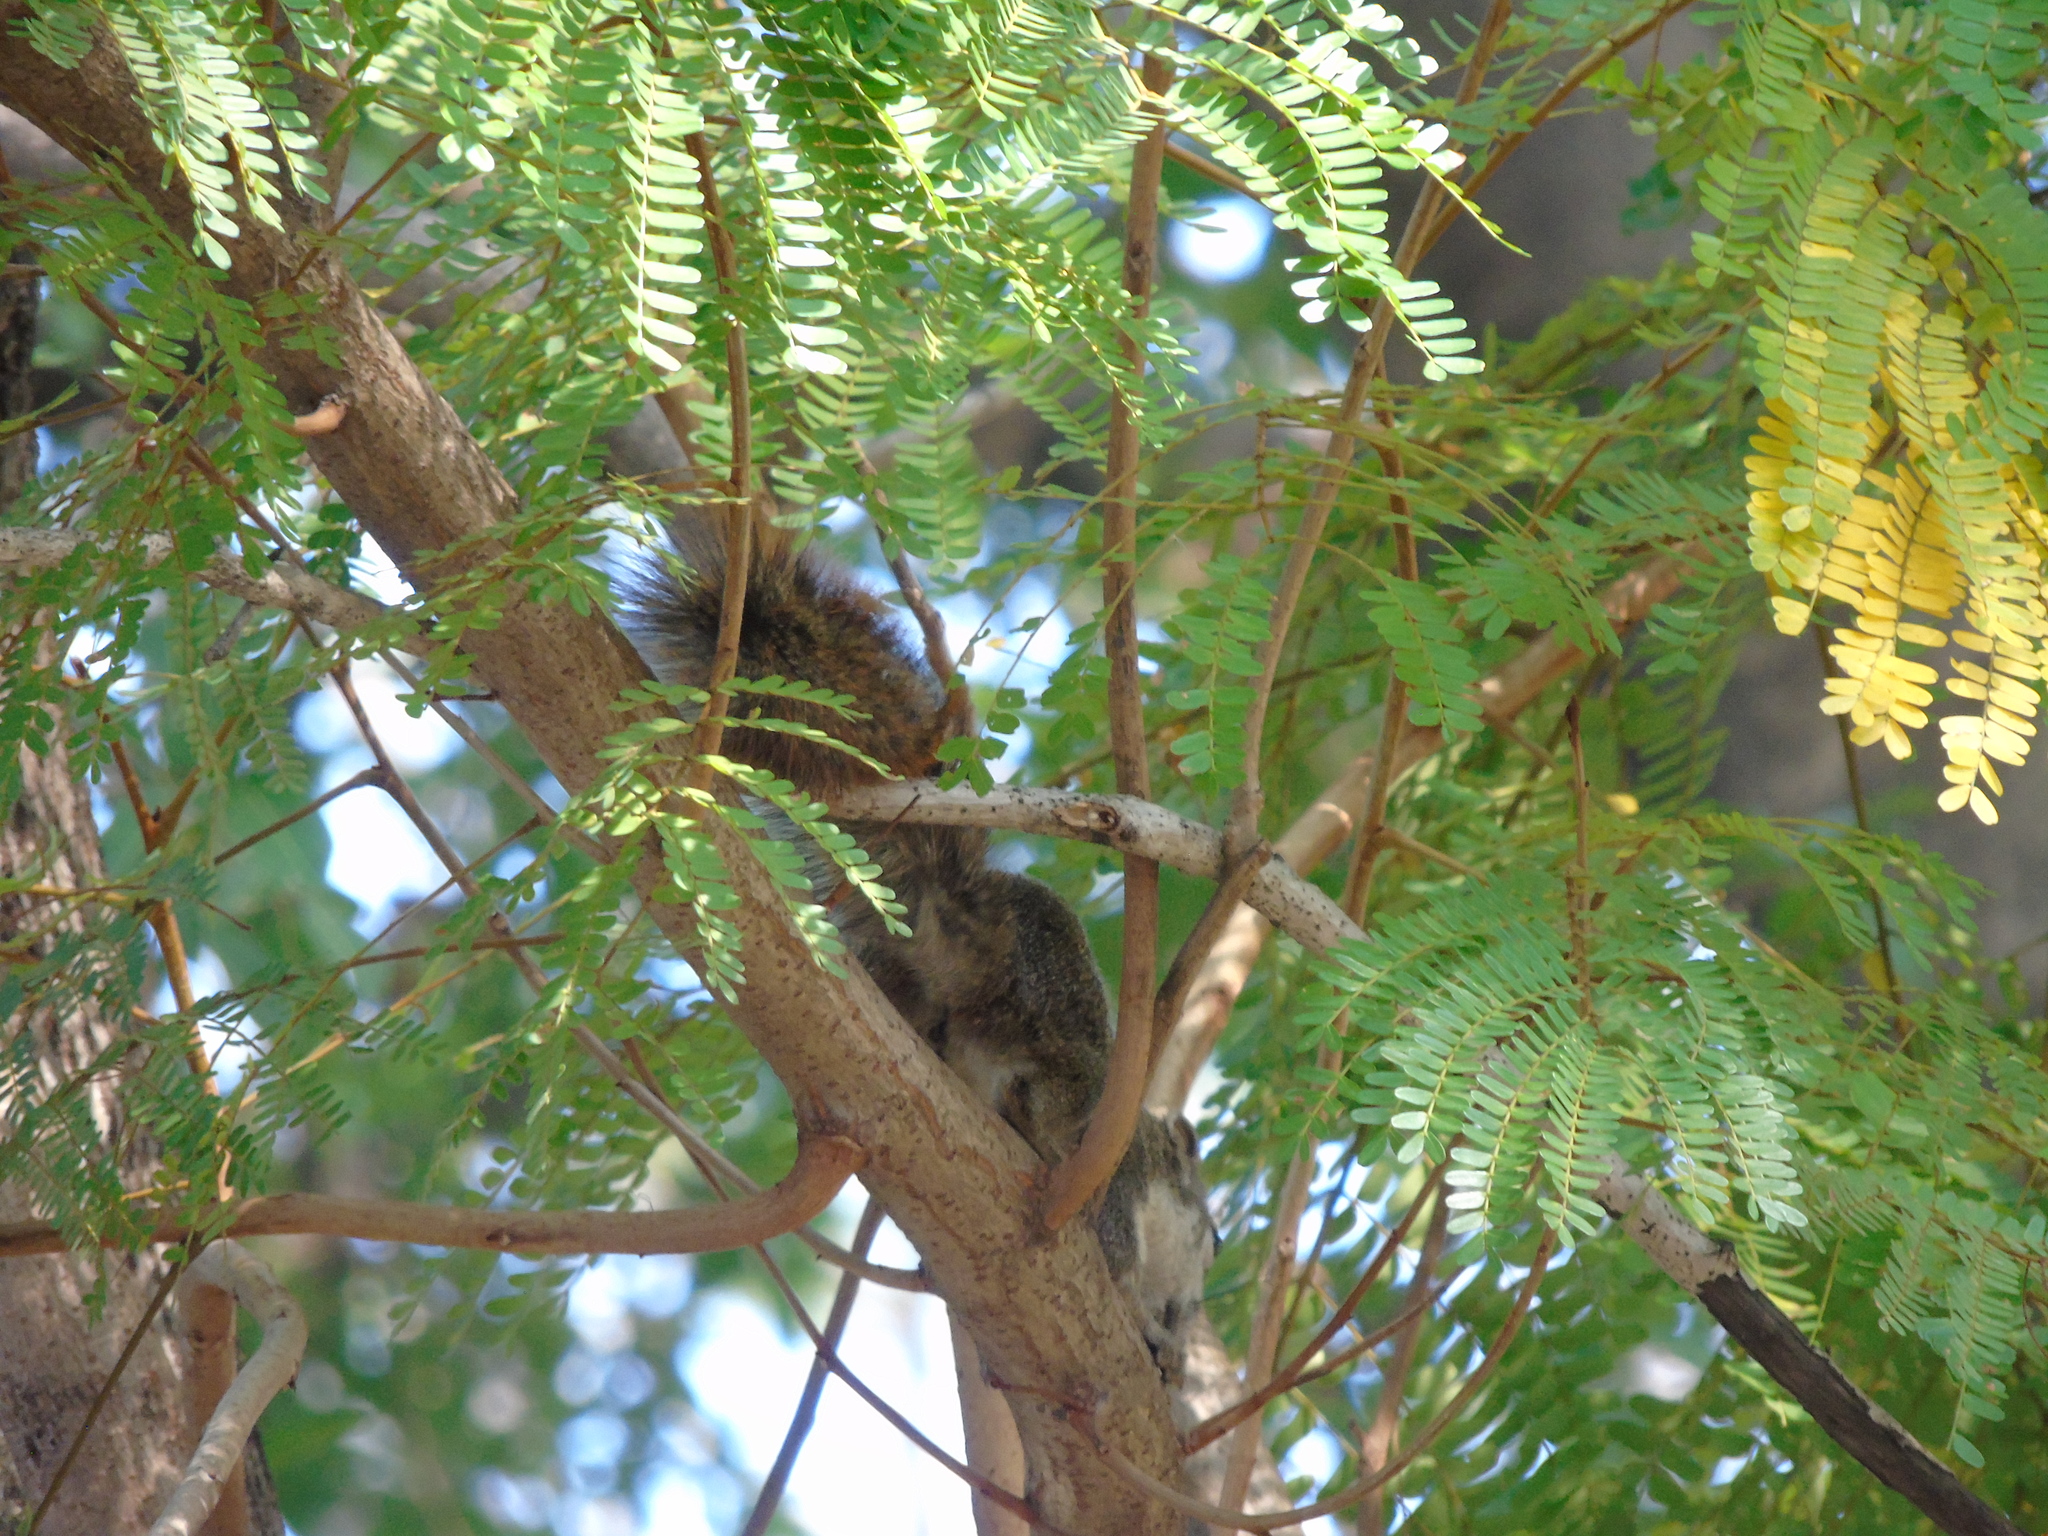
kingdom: Animalia
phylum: Chordata
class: Mammalia
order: Rodentia
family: Sciuridae
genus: Callosciurus
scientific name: Callosciurus finlaysonii
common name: Finlayson's squirrel
